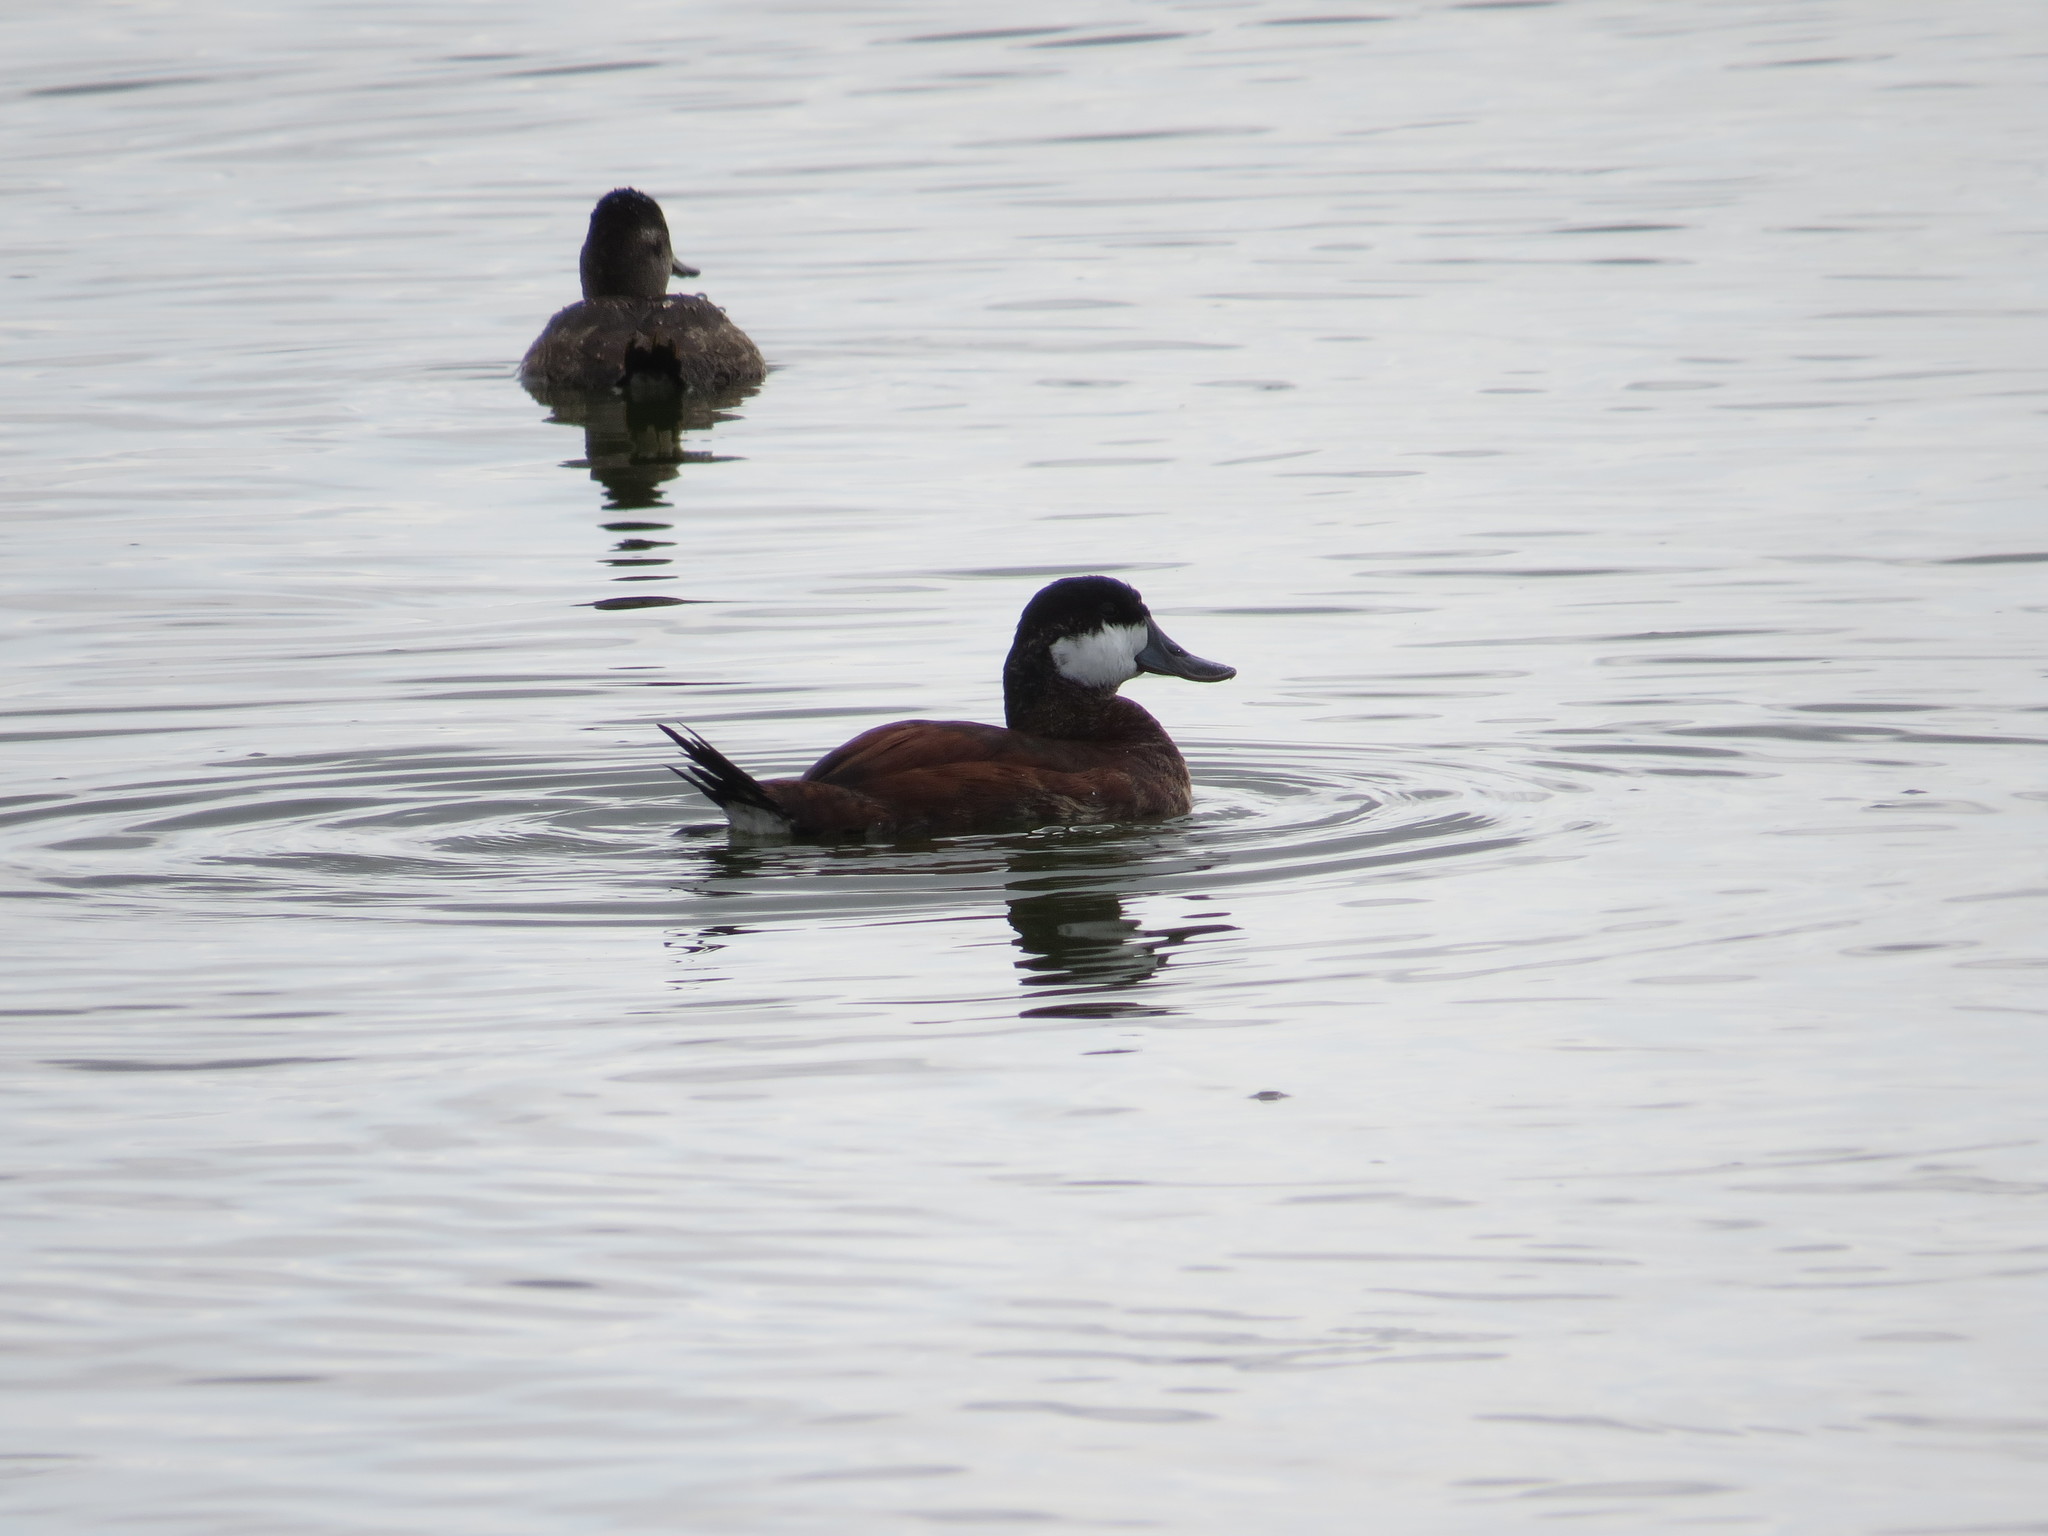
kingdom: Animalia
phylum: Chordata
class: Aves
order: Anseriformes
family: Anatidae
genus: Oxyura
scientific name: Oxyura jamaicensis
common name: Ruddy duck
